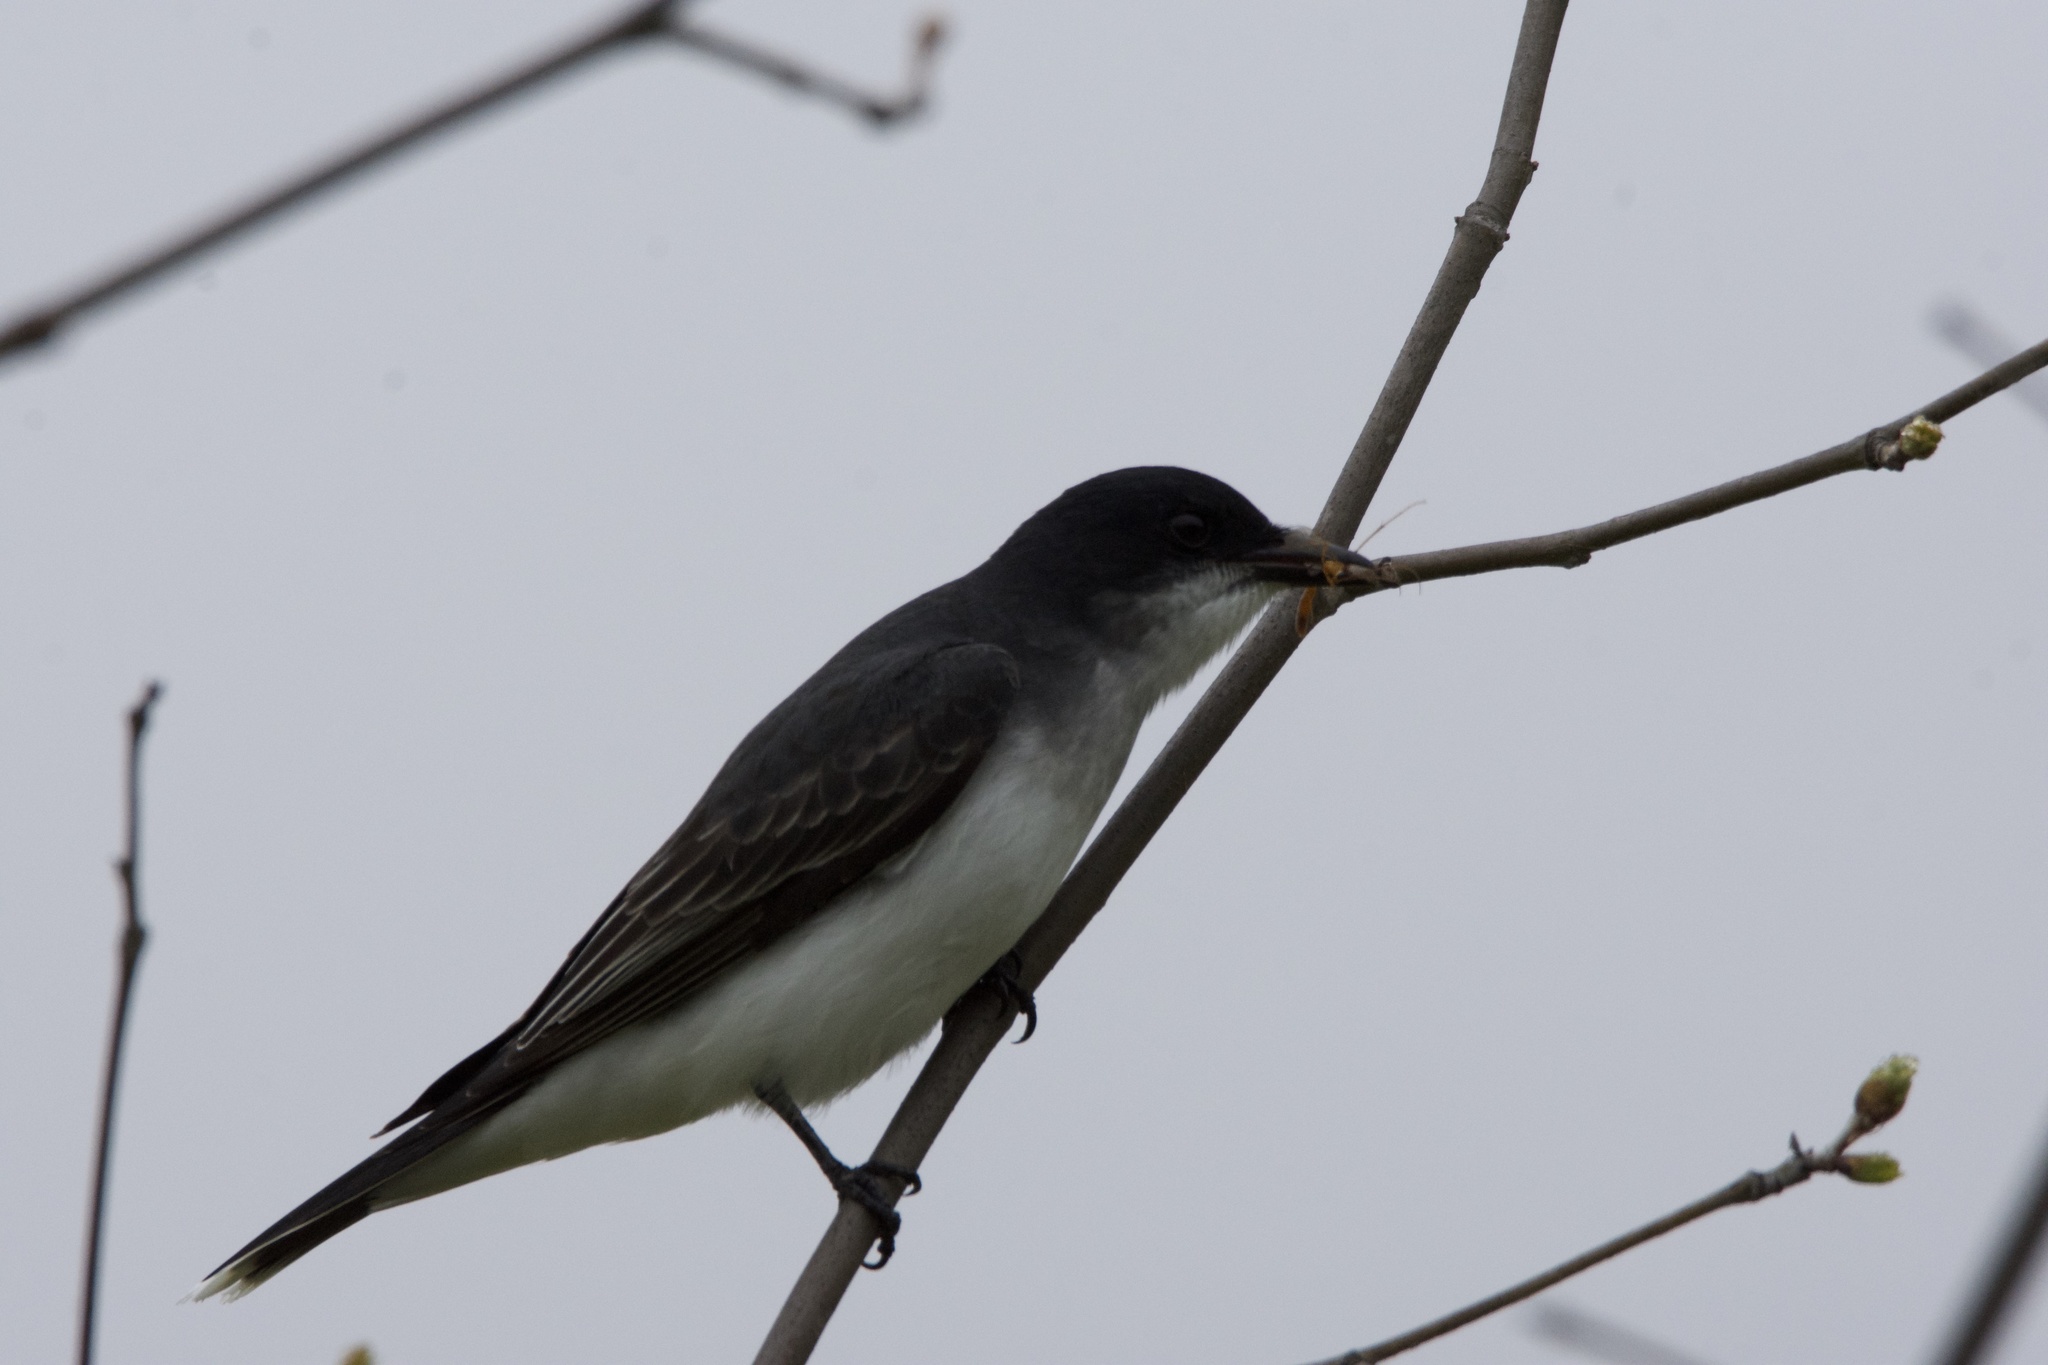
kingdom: Animalia
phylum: Chordata
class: Aves
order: Passeriformes
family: Tyrannidae
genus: Tyrannus
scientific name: Tyrannus tyrannus
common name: Eastern kingbird
